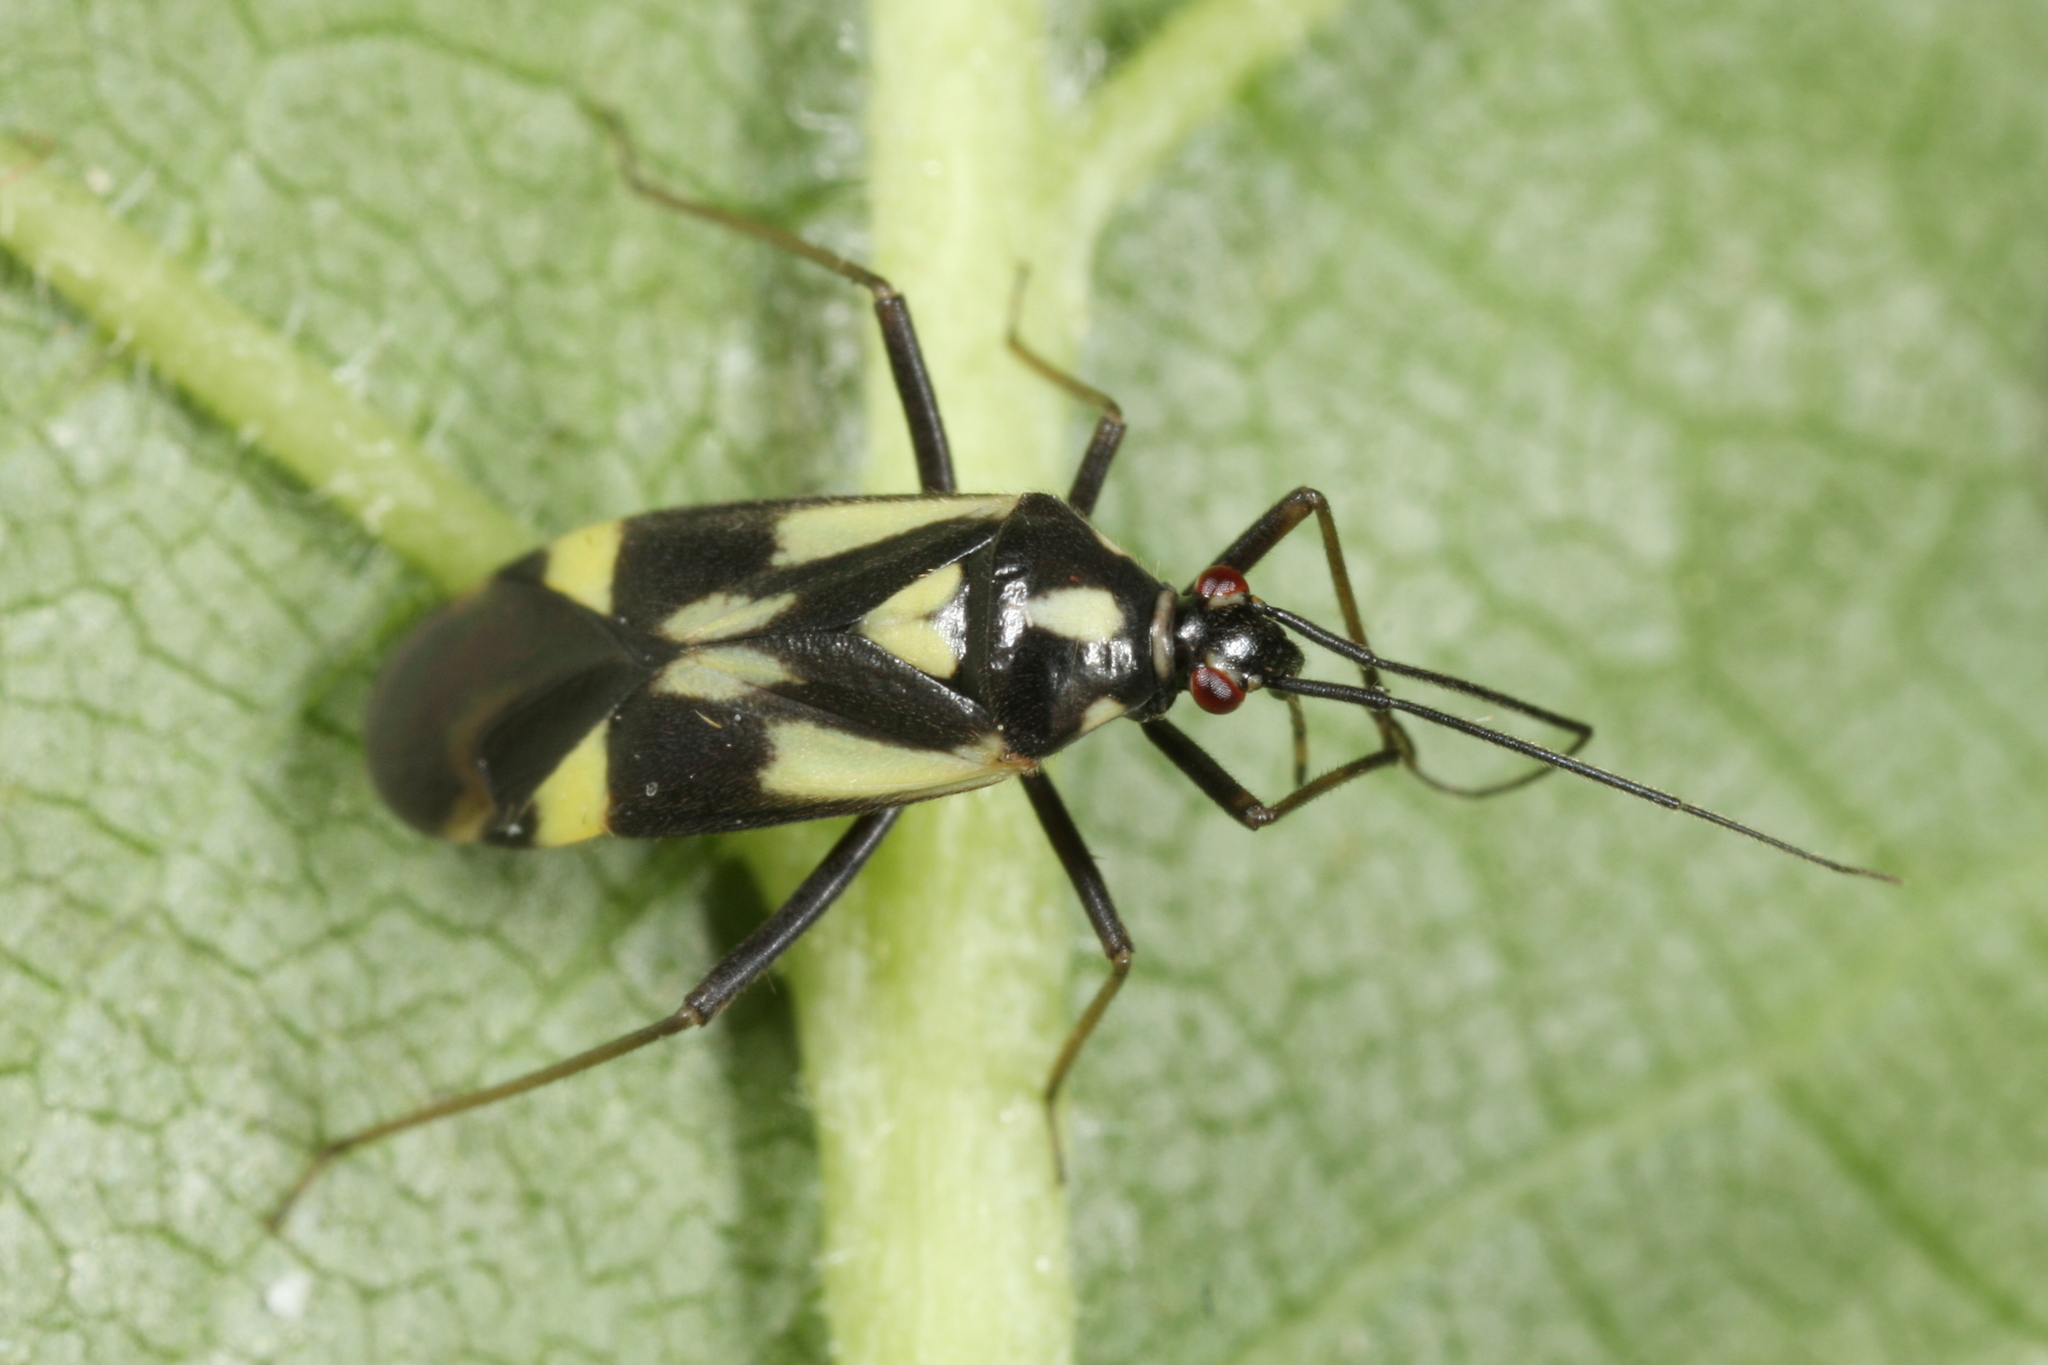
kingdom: Animalia
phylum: Arthropoda
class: Insecta
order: Hemiptera
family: Miridae
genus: Grypocoris
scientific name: Grypocoris sexguttatus
